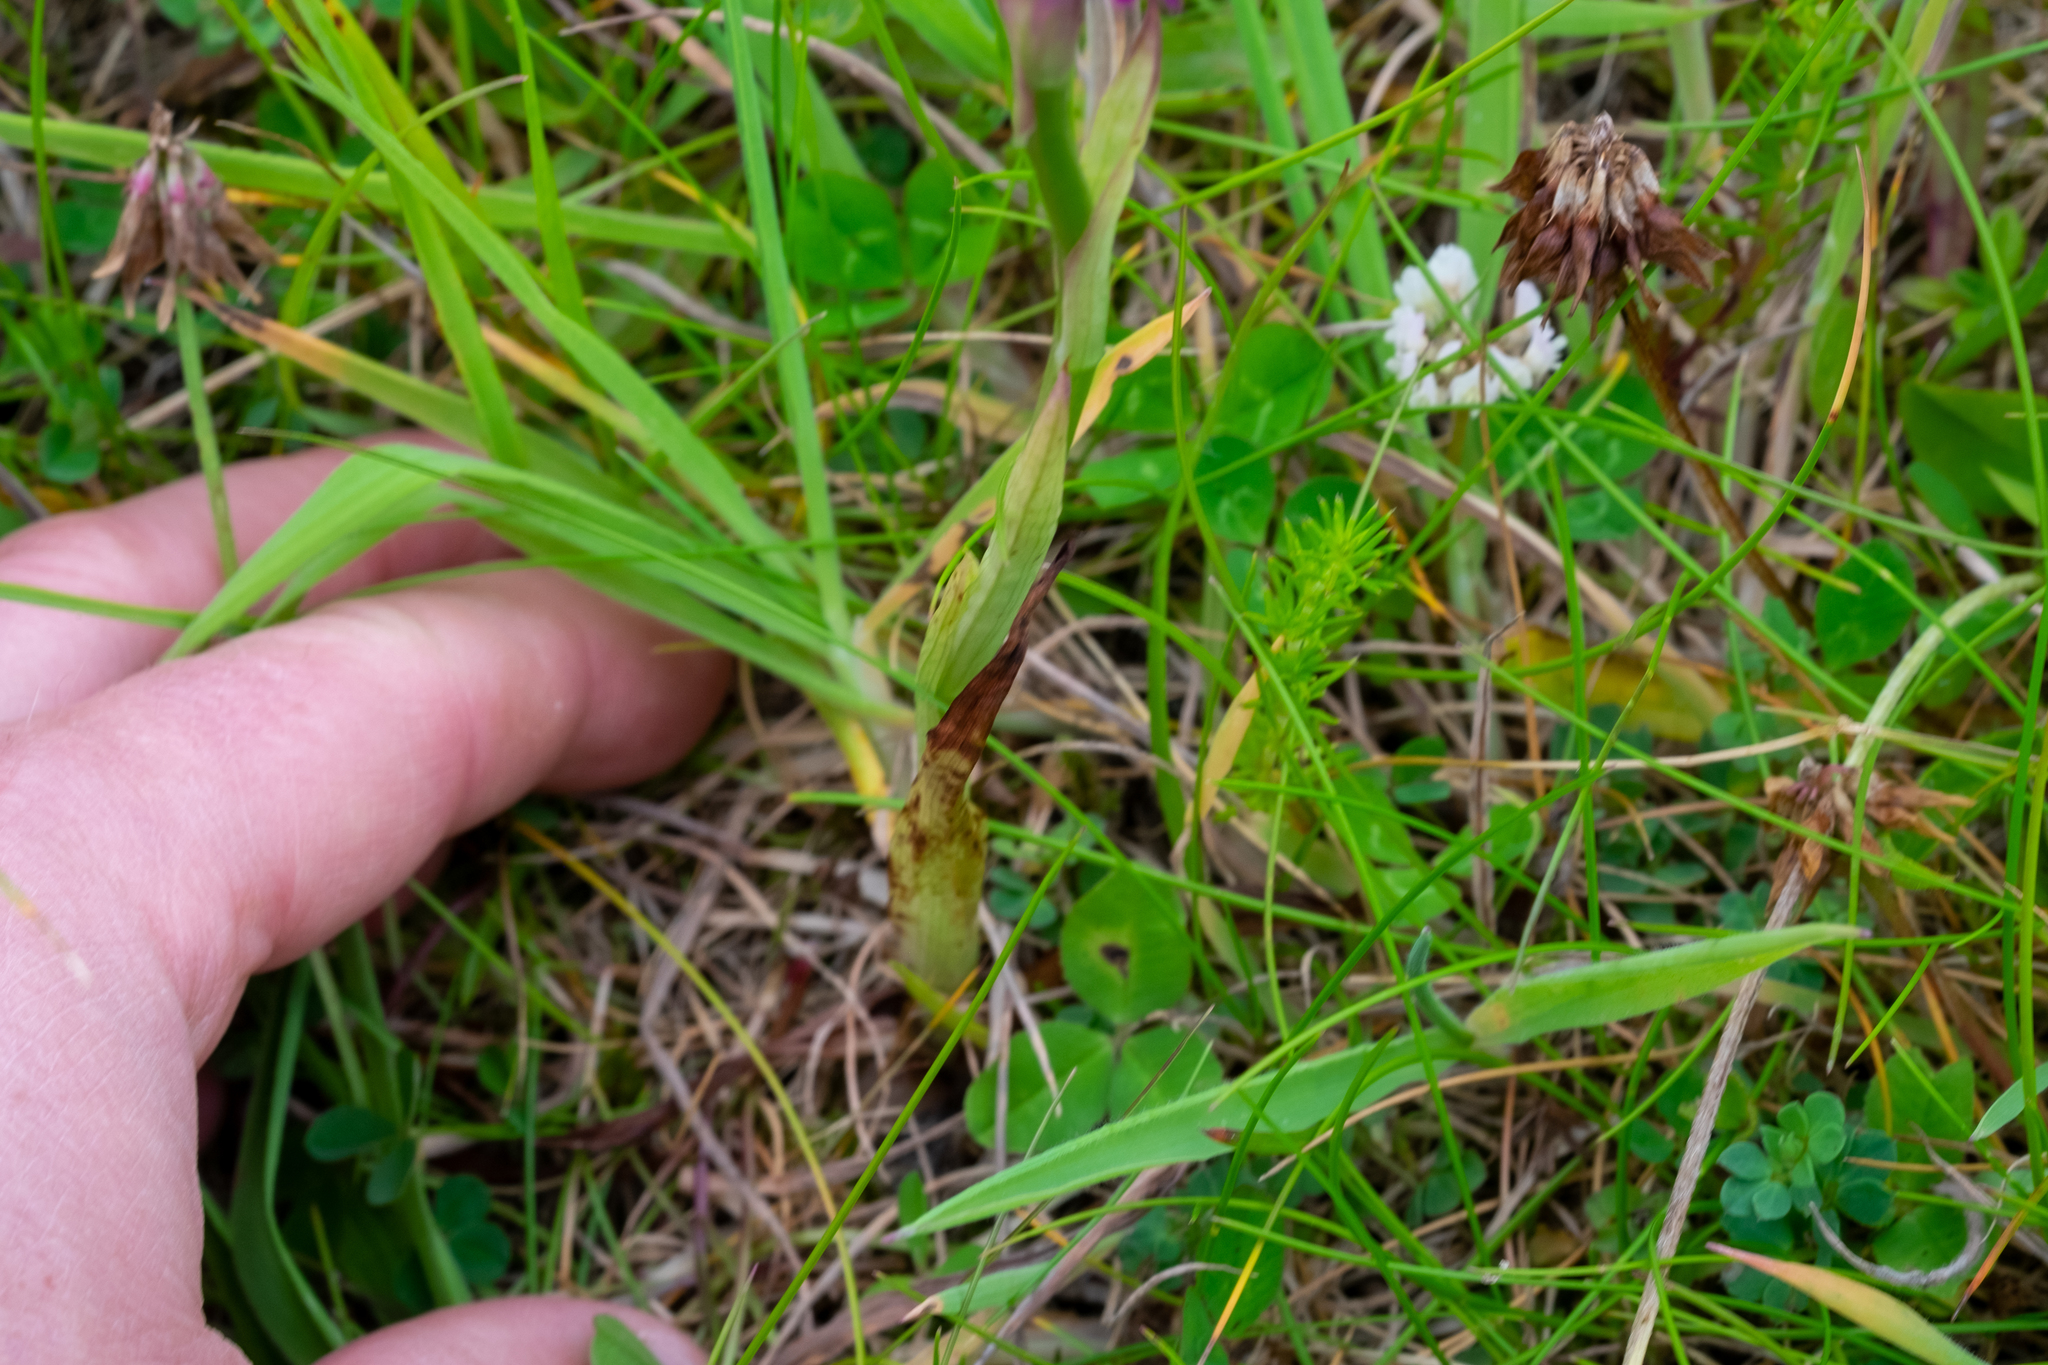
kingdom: Plantae
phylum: Tracheophyta
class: Liliopsida
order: Asparagales
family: Orchidaceae
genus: Anacamptis
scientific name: Anacamptis pyramidalis
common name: Pyramidal orchid
